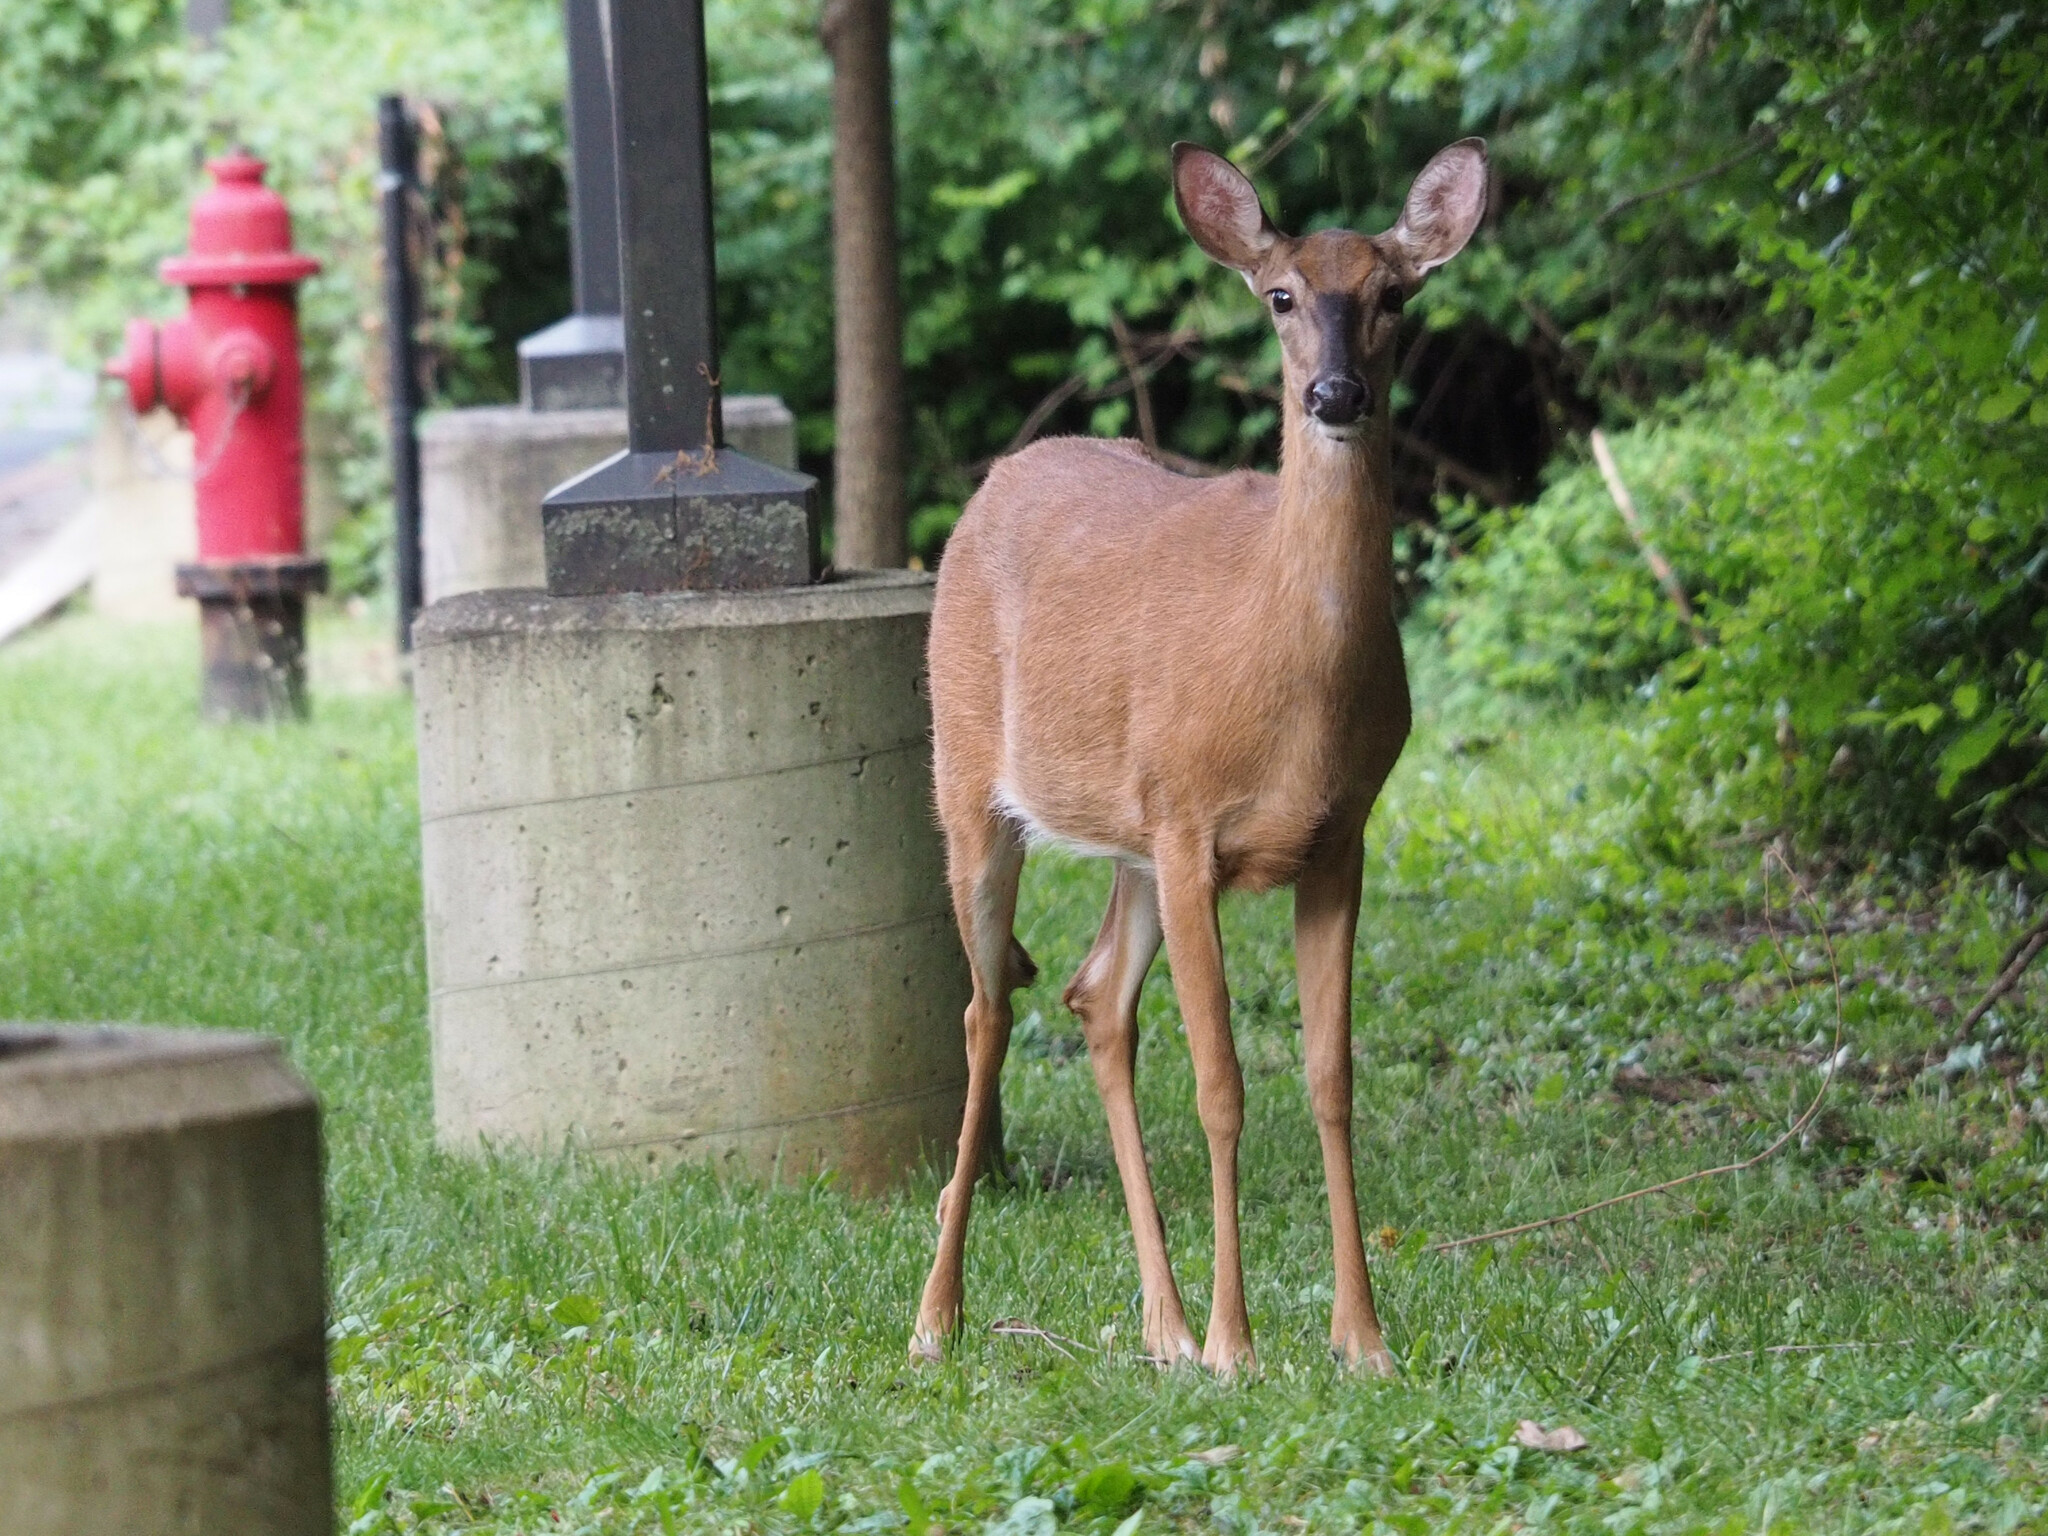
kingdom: Animalia
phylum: Chordata
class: Mammalia
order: Artiodactyla
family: Cervidae
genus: Odocoileus
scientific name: Odocoileus virginianus
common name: White-tailed deer
